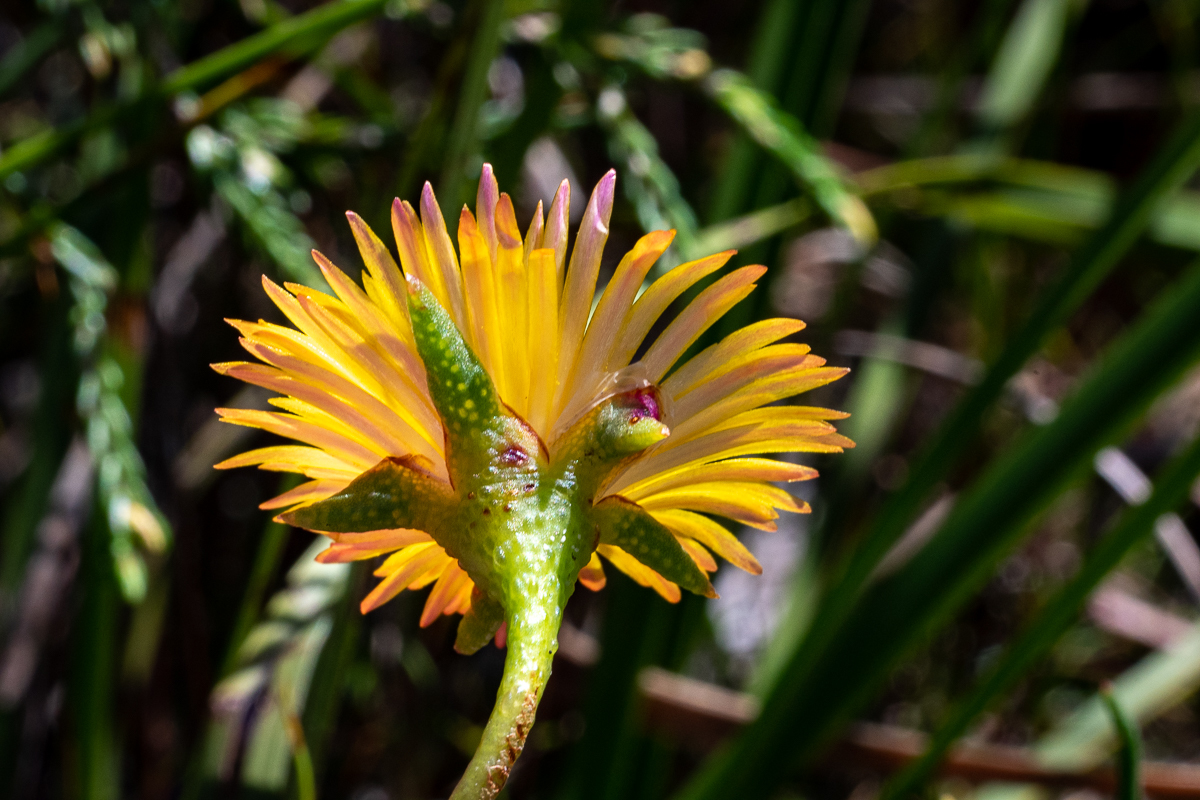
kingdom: Plantae
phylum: Tracheophyta
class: Magnoliopsida
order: Caryophyllales
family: Aizoaceae
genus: Lampranthus
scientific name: Lampranthus bicolor
